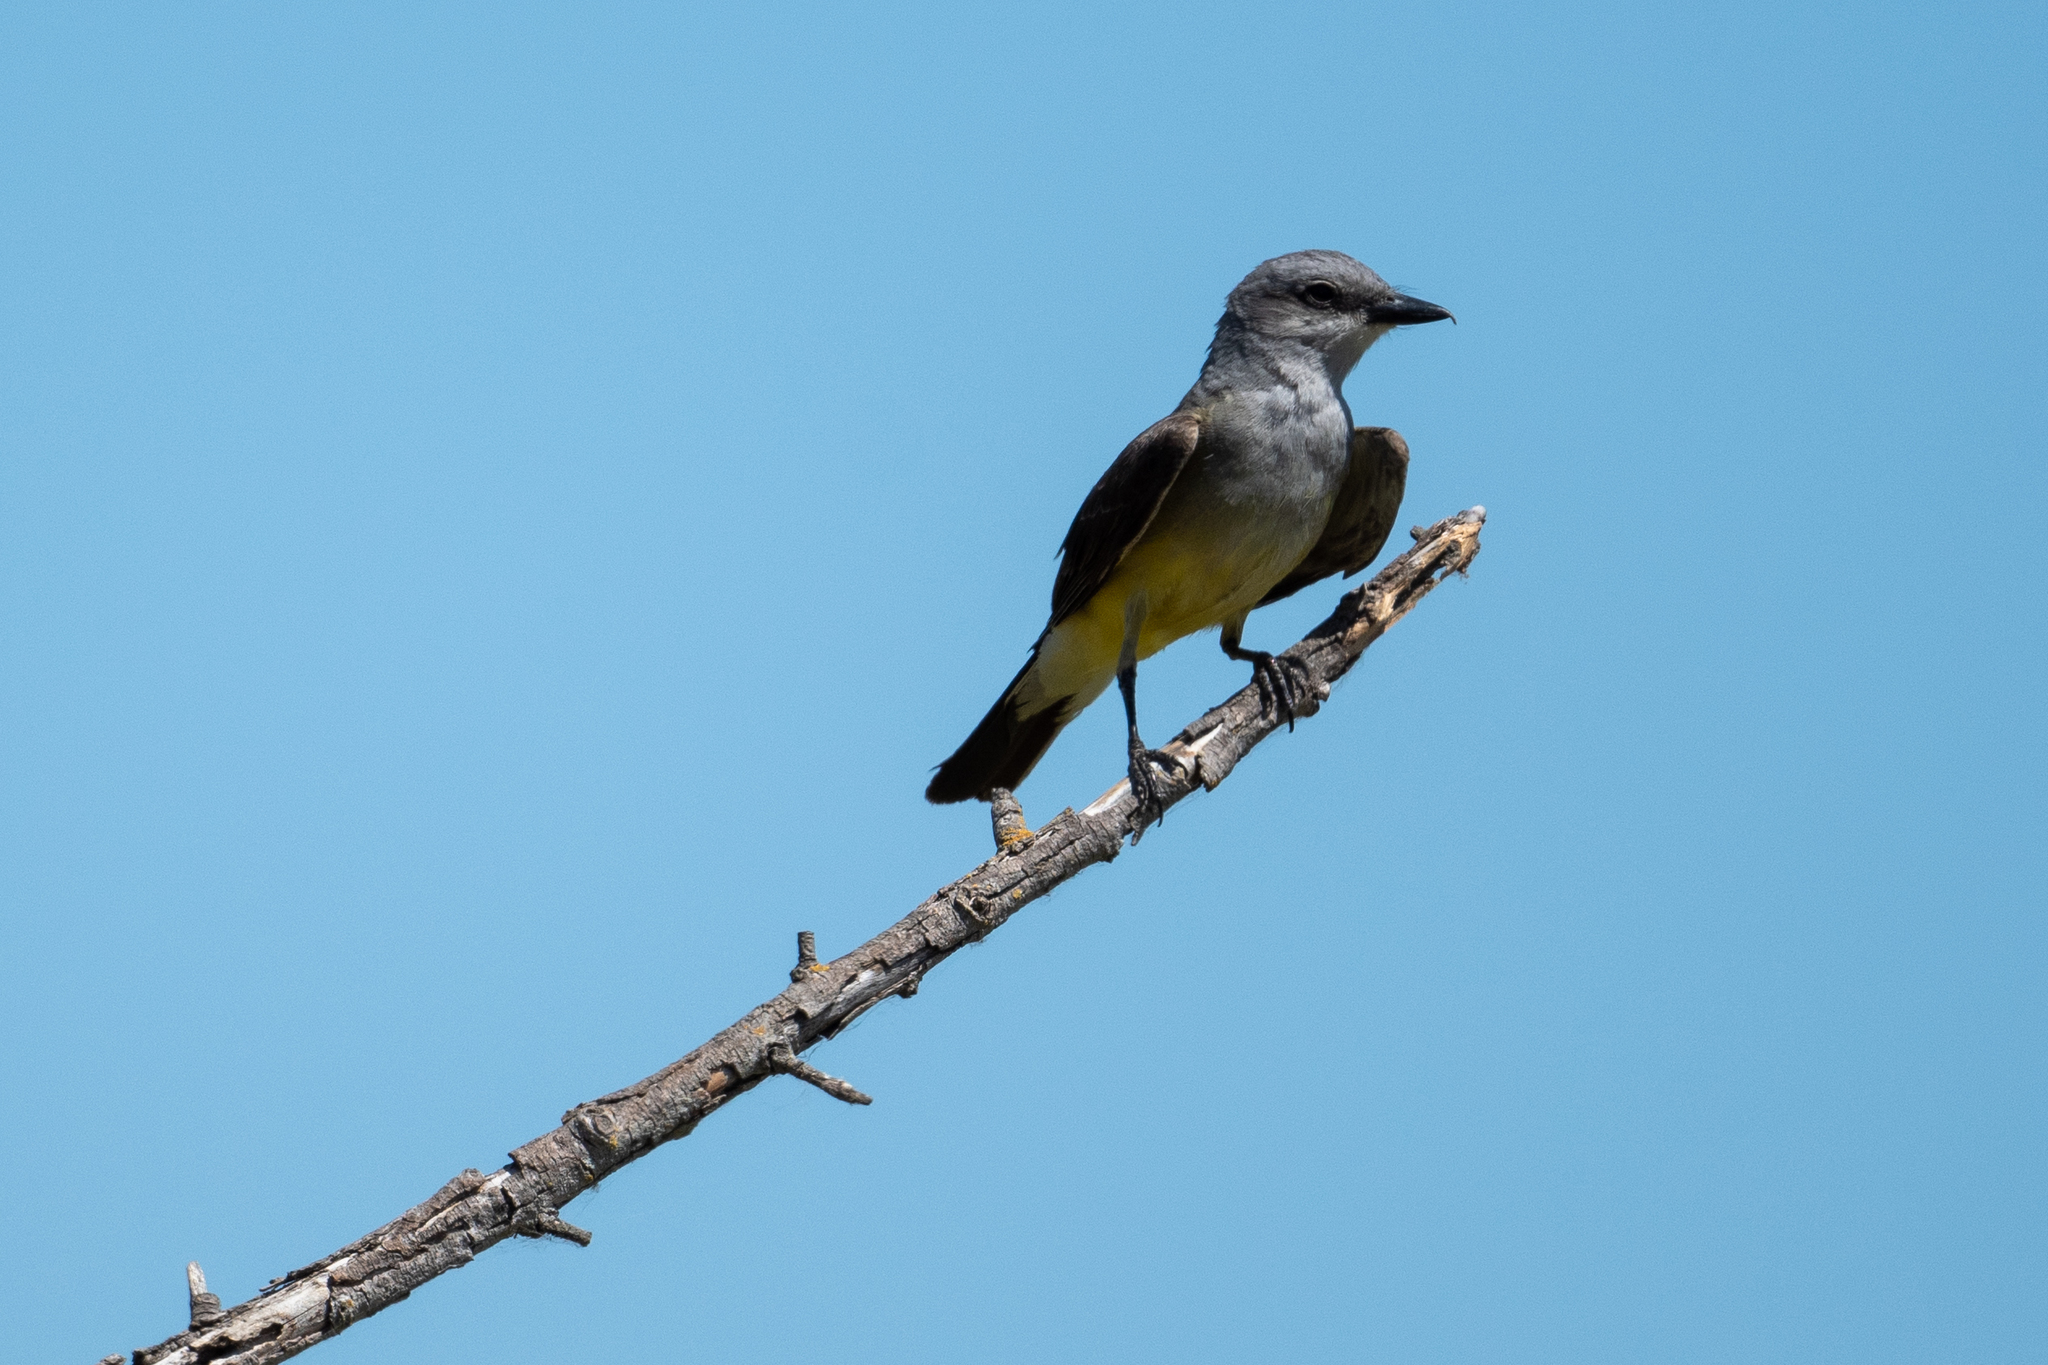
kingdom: Animalia
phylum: Chordata
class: Aves
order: Passeriformes
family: Tyrannidae
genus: Tyrannus
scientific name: Tyrannus verticalis
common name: Western kingbird
